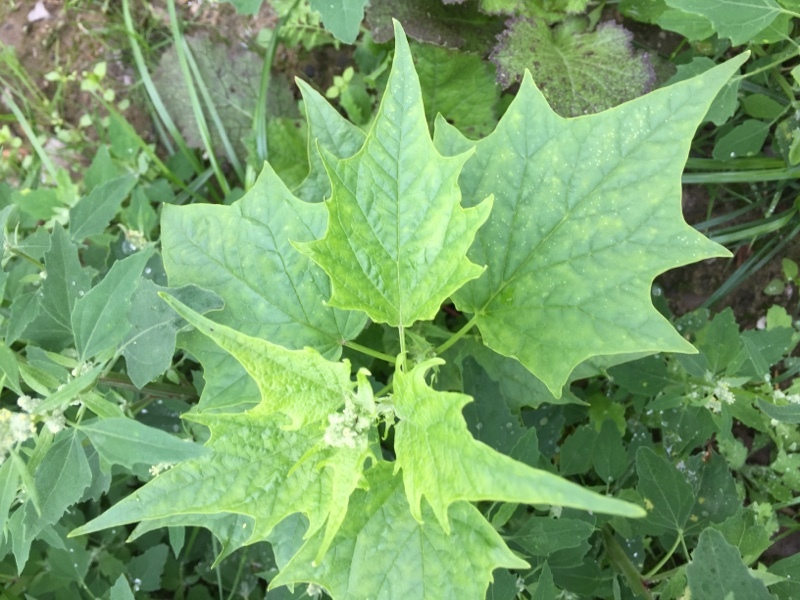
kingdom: Plantae
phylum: Tracheophyta
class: Magnoliopsida
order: Caryophyllales
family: Amaranthaceae
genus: Chenopodiastrum
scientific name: Chenopodiastrum hybridum
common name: Mapleleaf goosefoot
